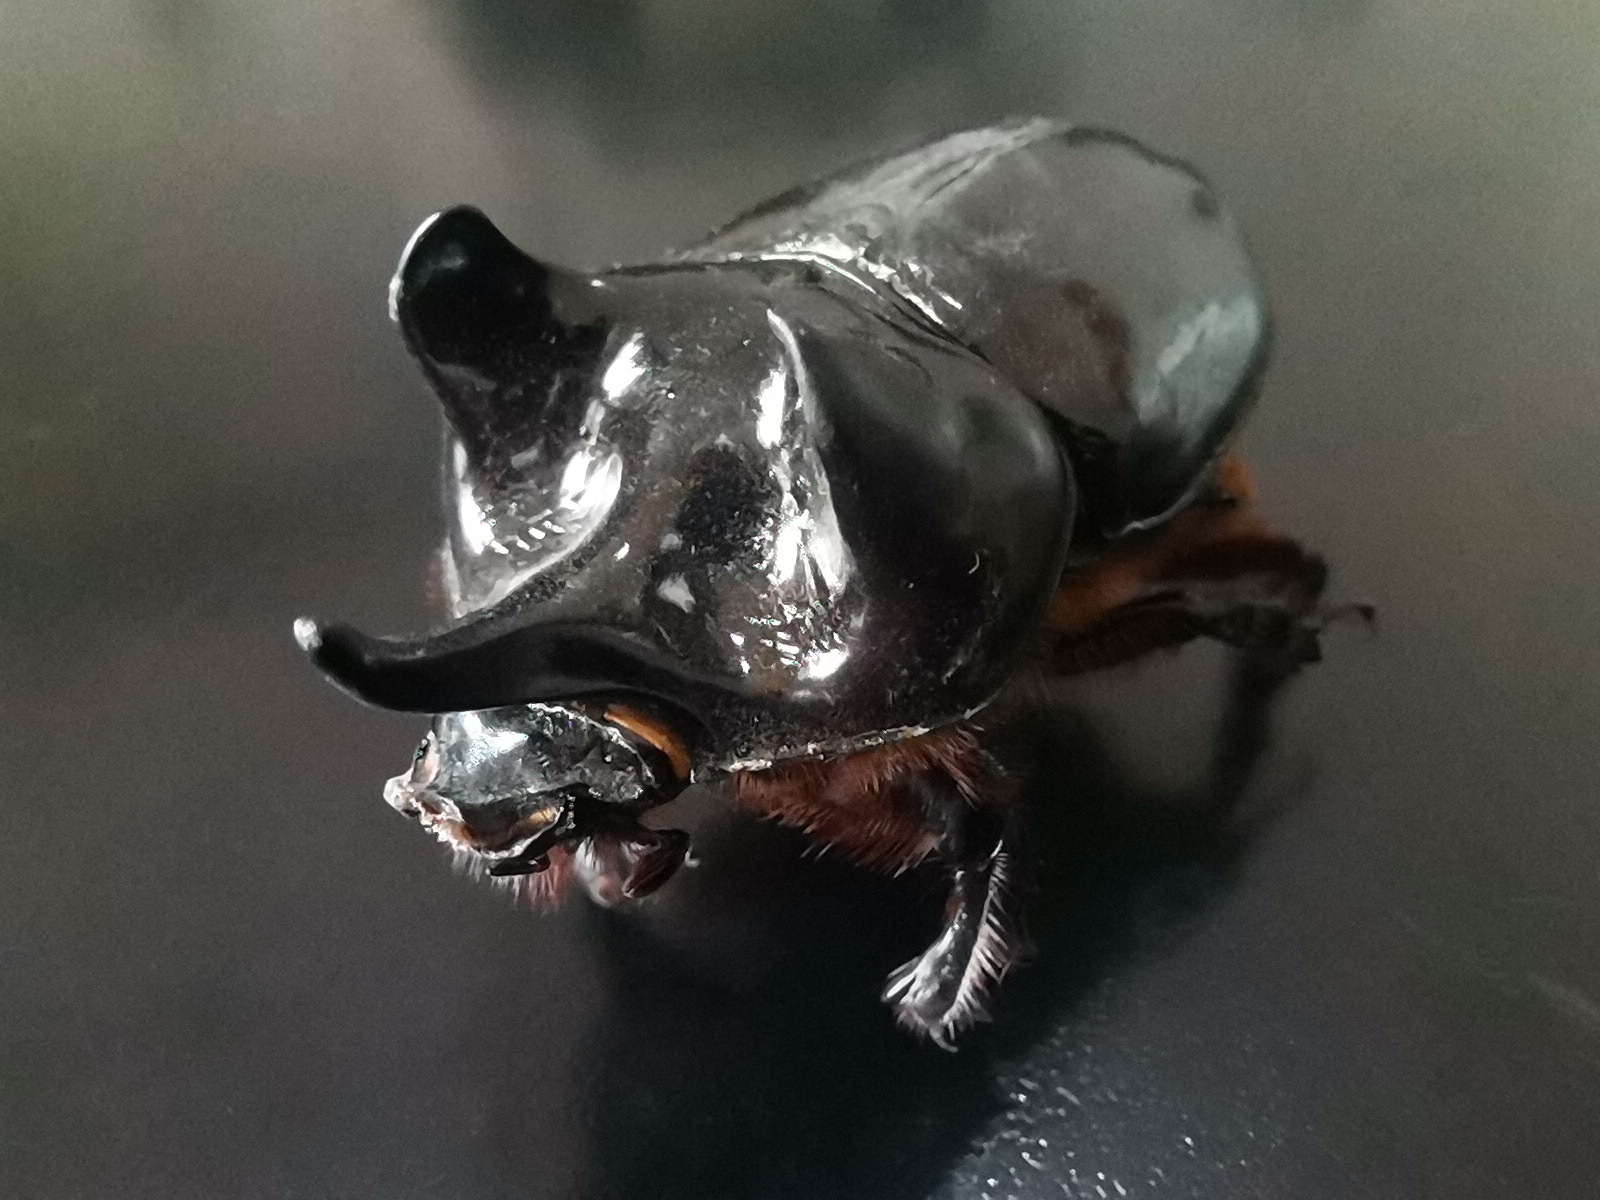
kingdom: Animalia
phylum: Arthropoda
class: Insecta
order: Coleoptera
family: Scarabaeidae
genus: Strategus
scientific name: Strategus aloeus
